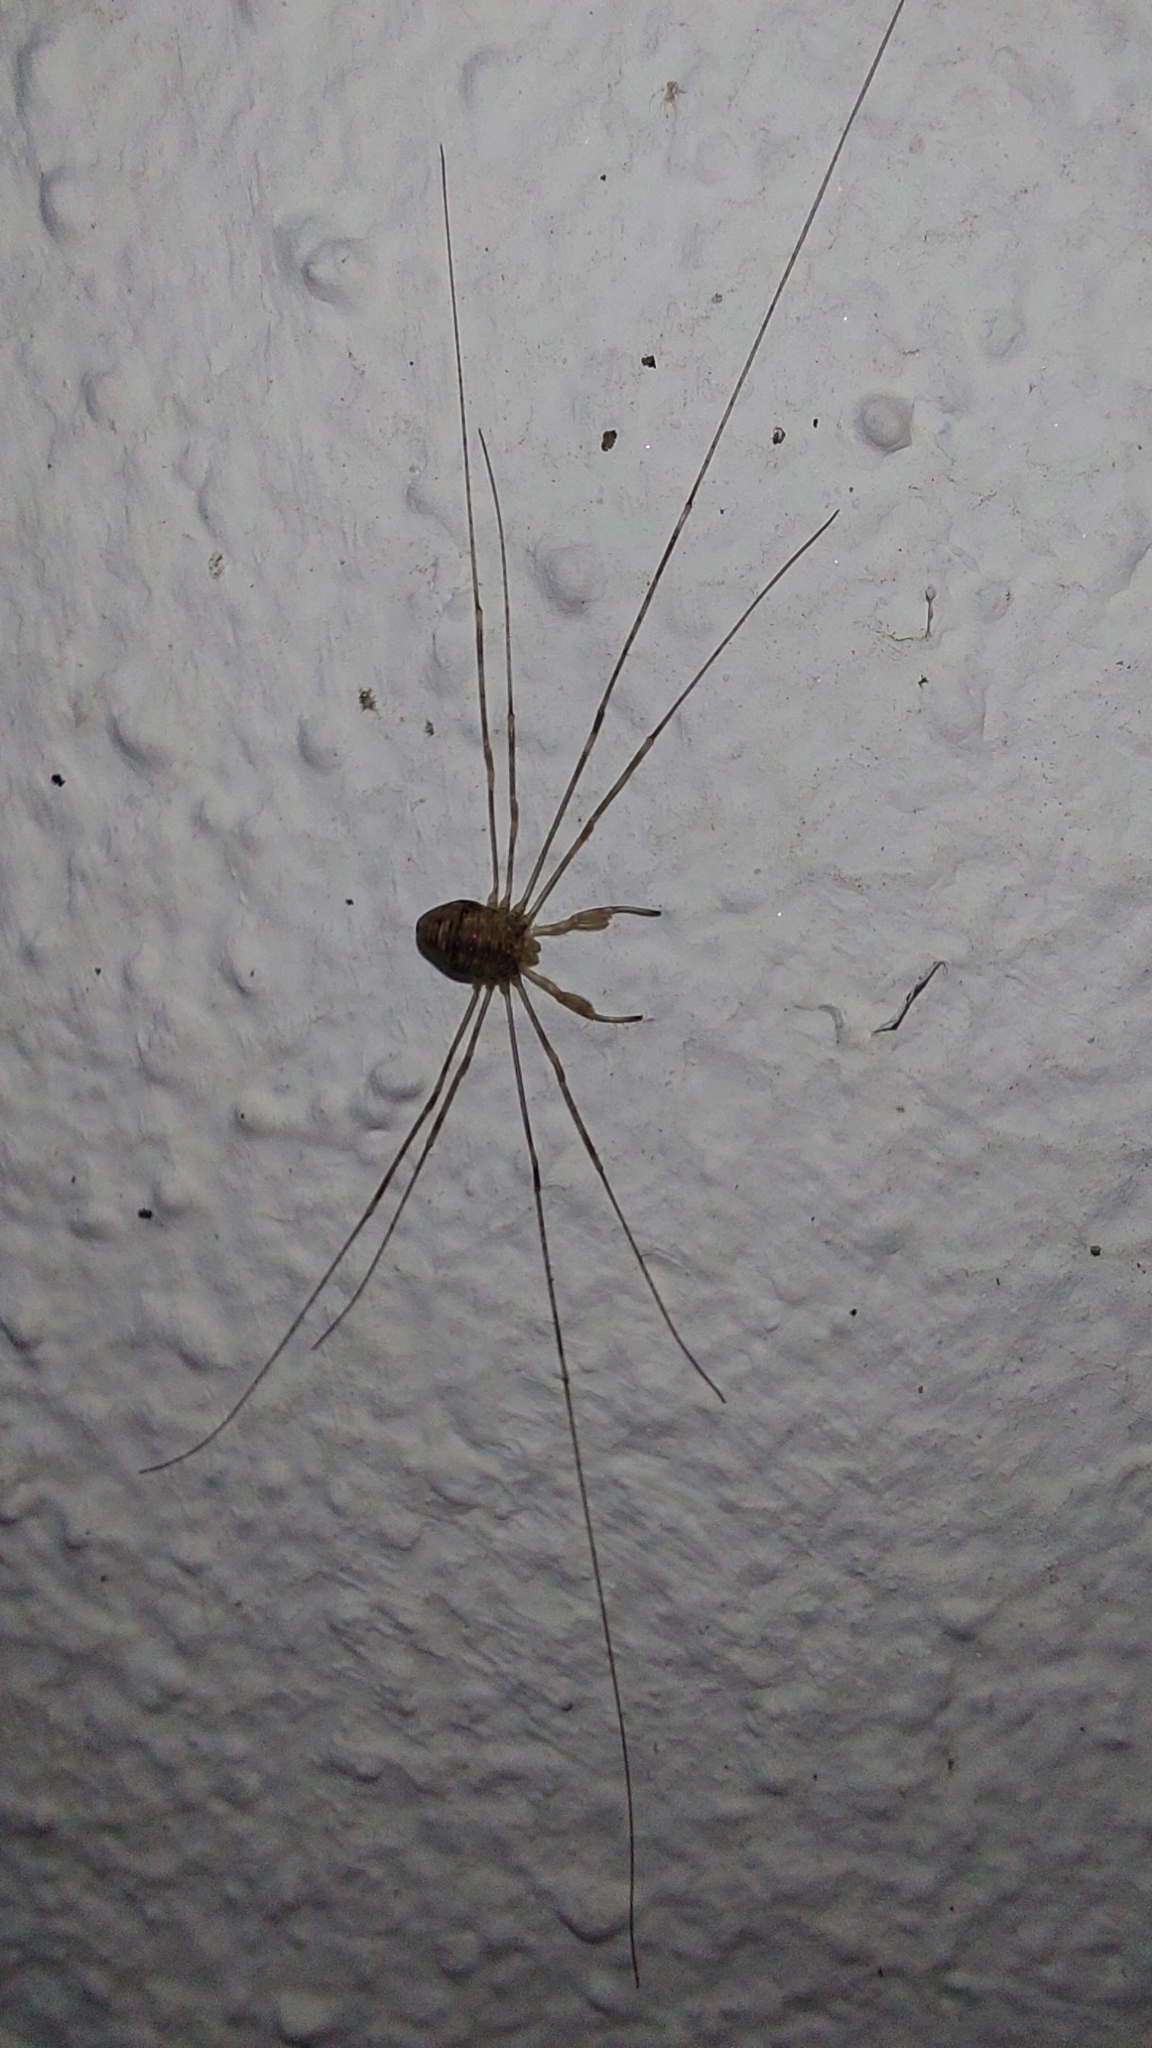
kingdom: Animalia
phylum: Arthropoda
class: Arachnida
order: Opiliones
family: Phalangiidae
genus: Dicranopalpus
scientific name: Dicranopalpus ramosus
